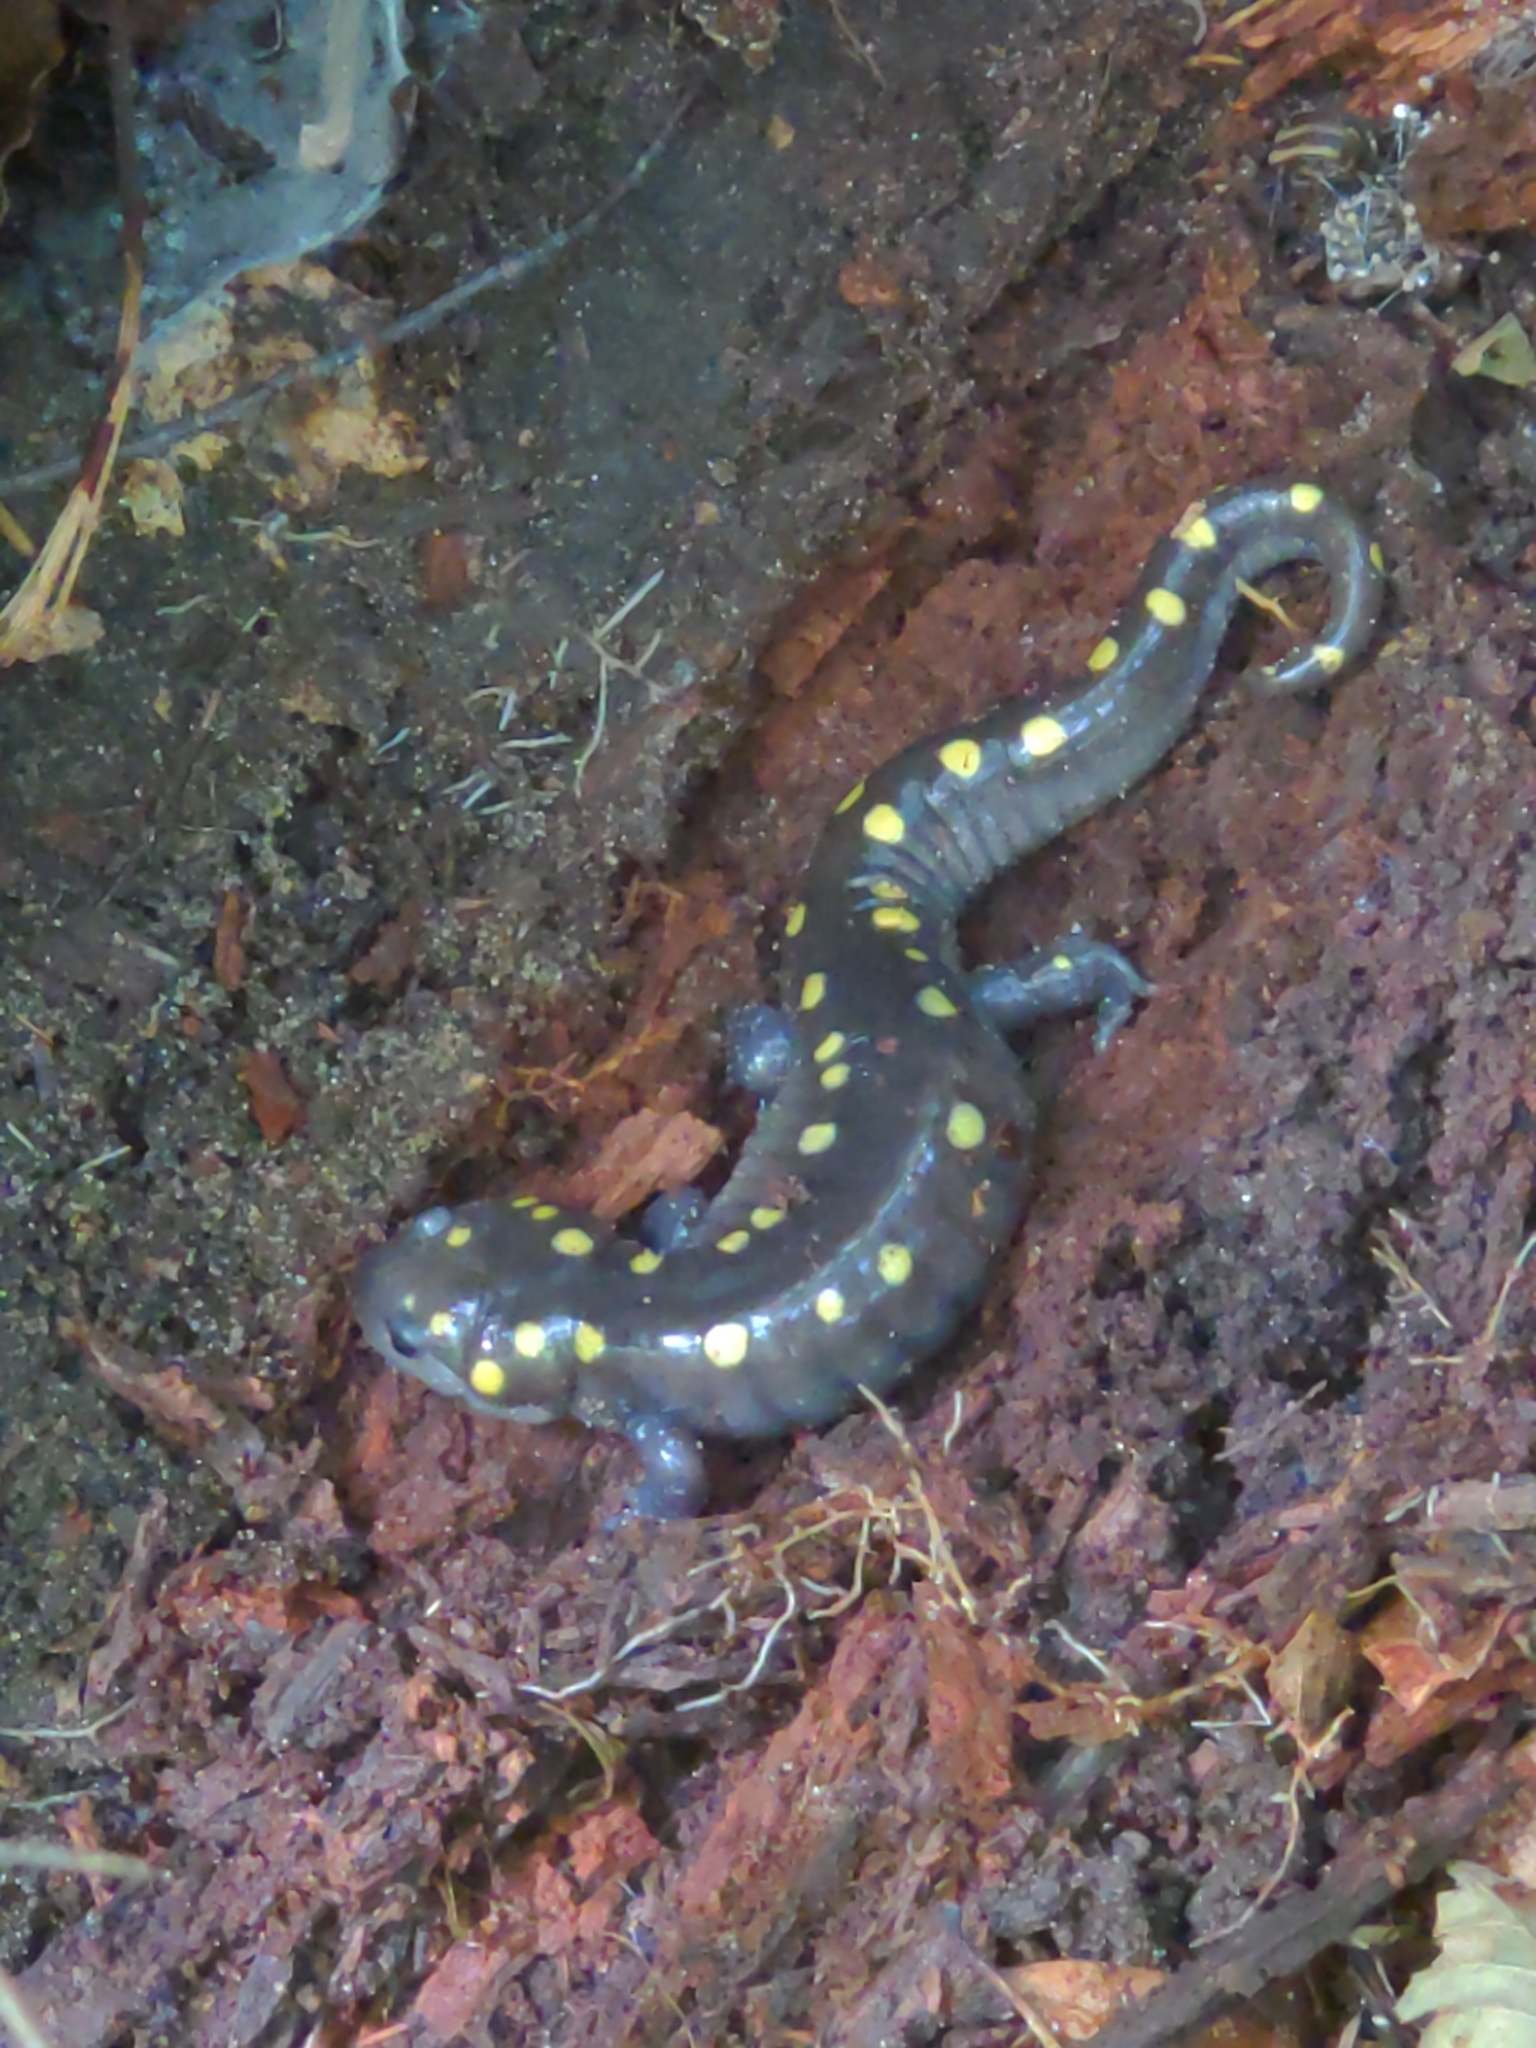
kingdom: Animalia
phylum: Chordata
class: Amphibia
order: Caudata
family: Ambystomatidae
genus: Ambystoma
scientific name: Ambystoma maculatum
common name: Spotted salamander
